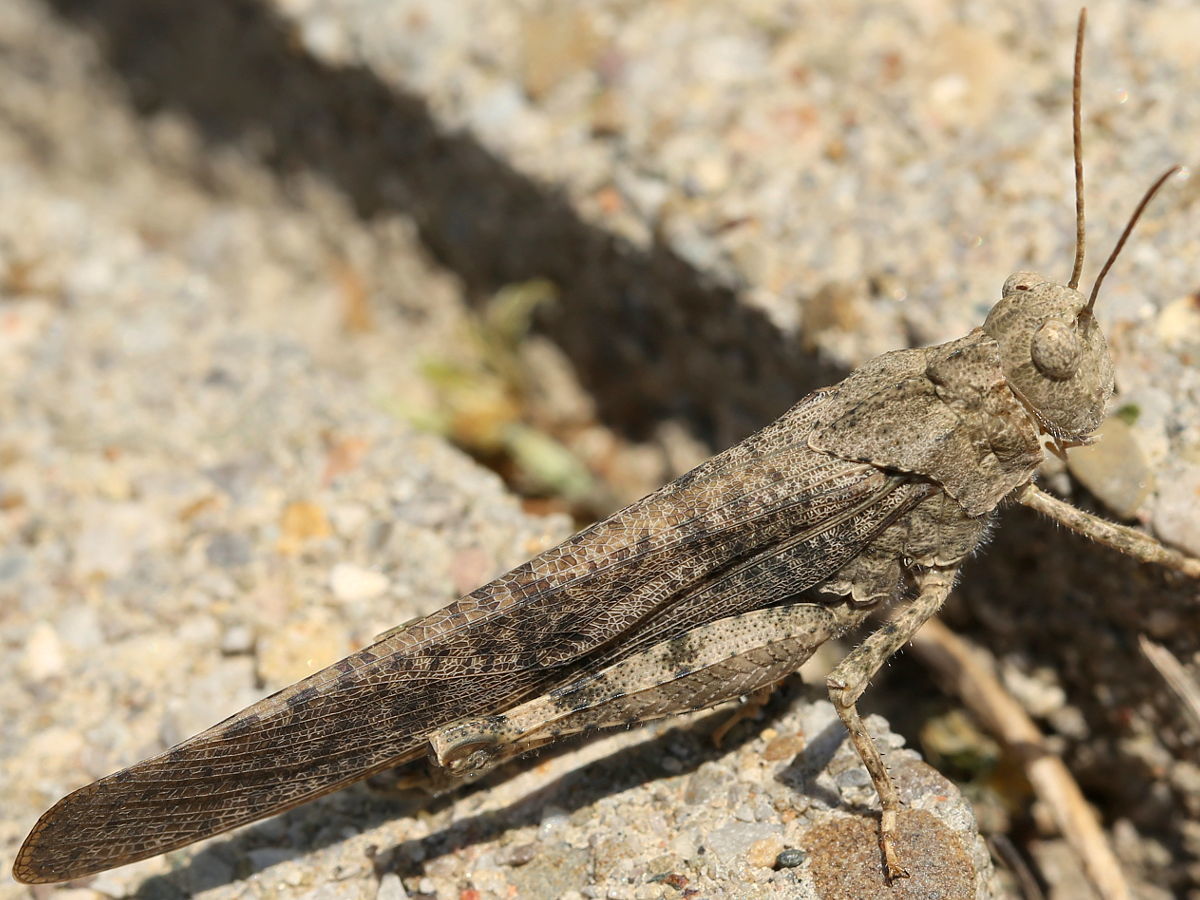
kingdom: Animalia
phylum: Arthropoda
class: Insecta
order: Orthoptera
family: Acrididae
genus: Dissosteira
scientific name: Dissosteira carolina
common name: Carolina grasshopper
